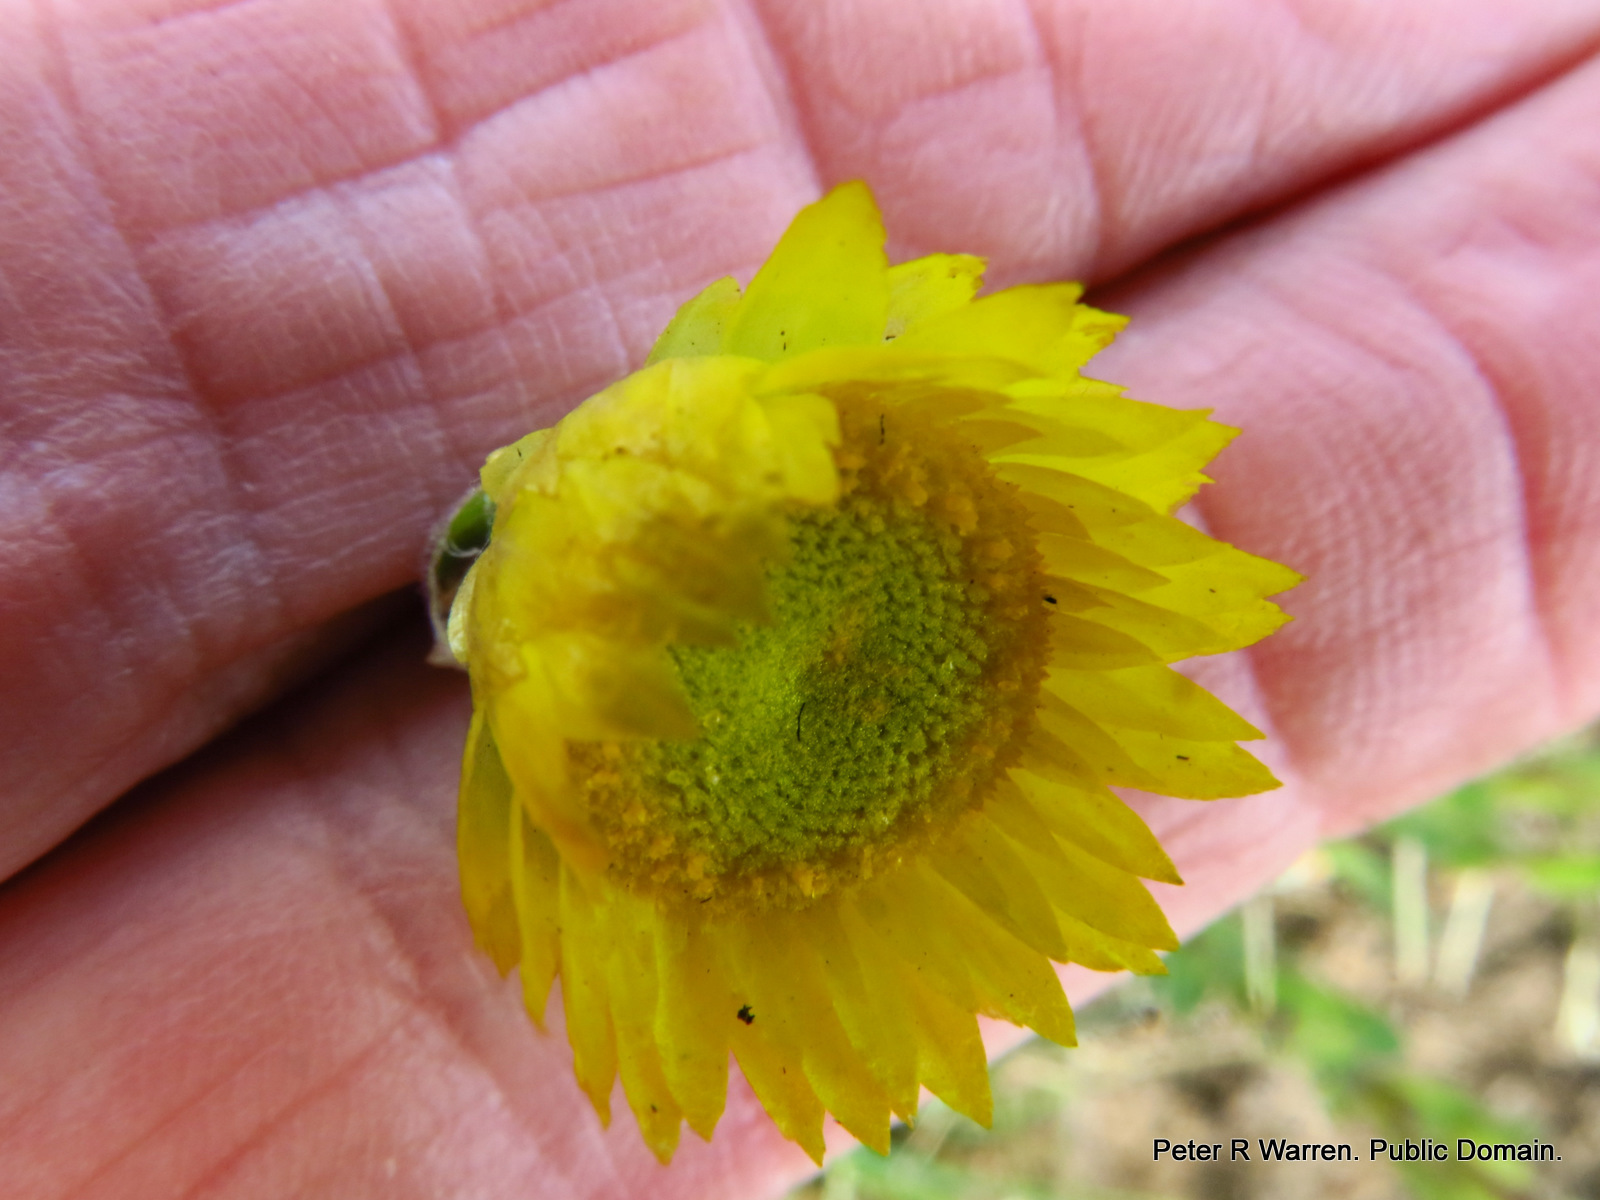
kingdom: Plantae
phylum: Tracheophyta
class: Magnoliopsida
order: Asterales
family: Asteraceae
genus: Helichrysum
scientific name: Helichrysum aureum
